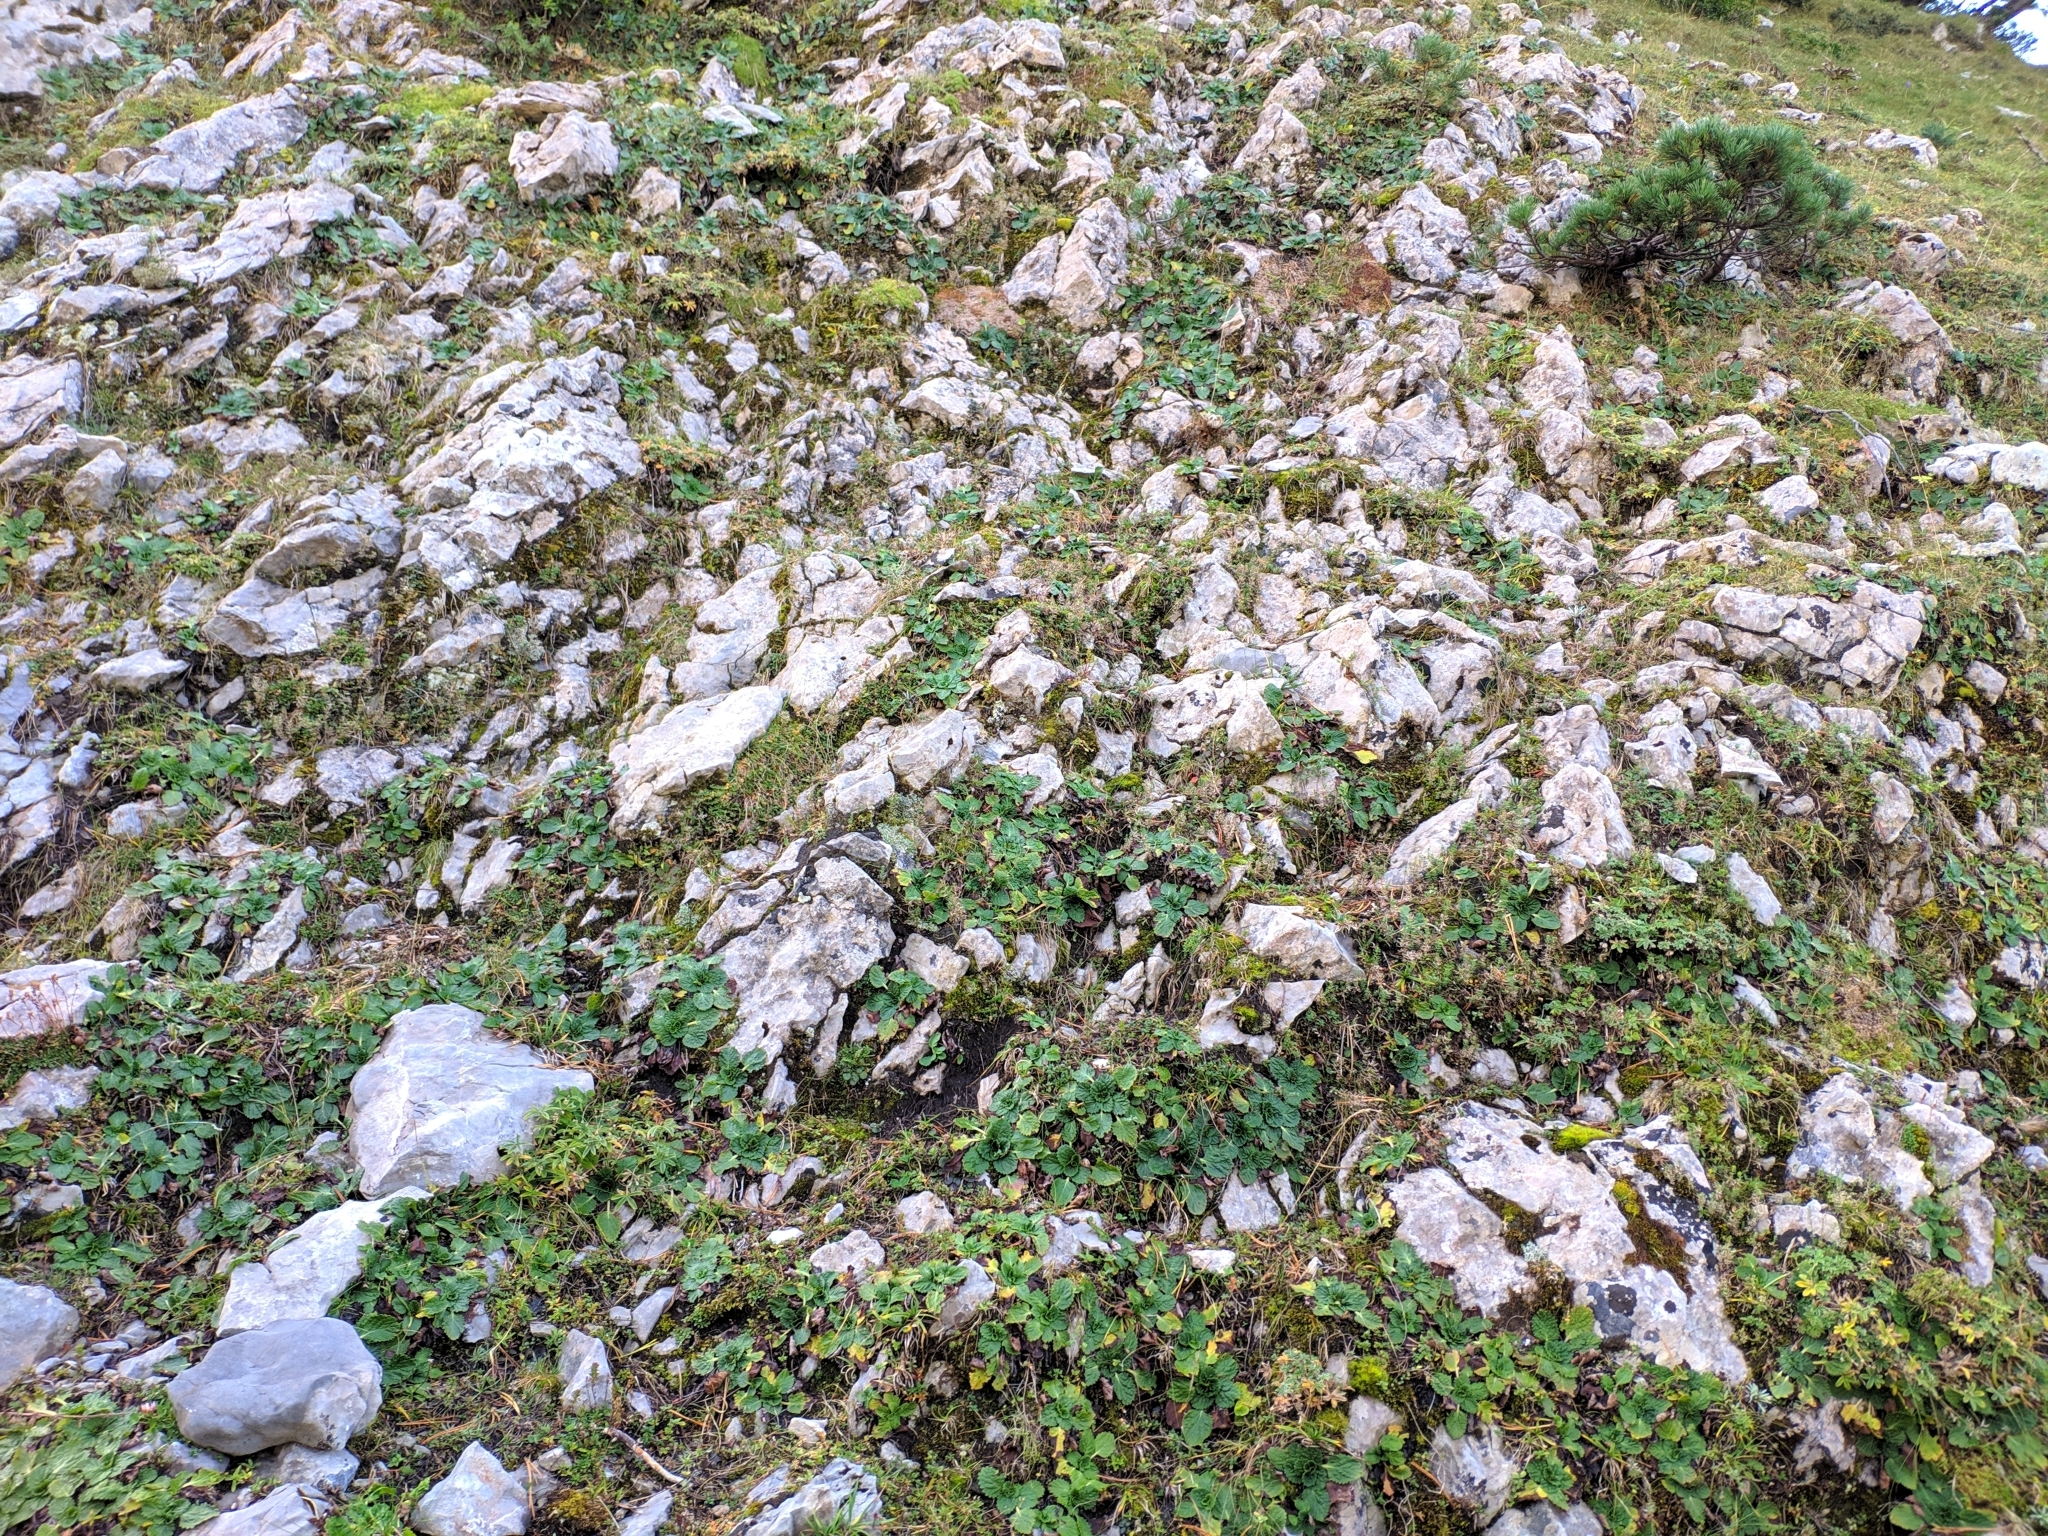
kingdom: Plantae
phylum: Tracheophyta
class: Magnoliopsida
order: Lamiales
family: Lamiaceae
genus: Horminum
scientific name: Horminum pyrenaicum
